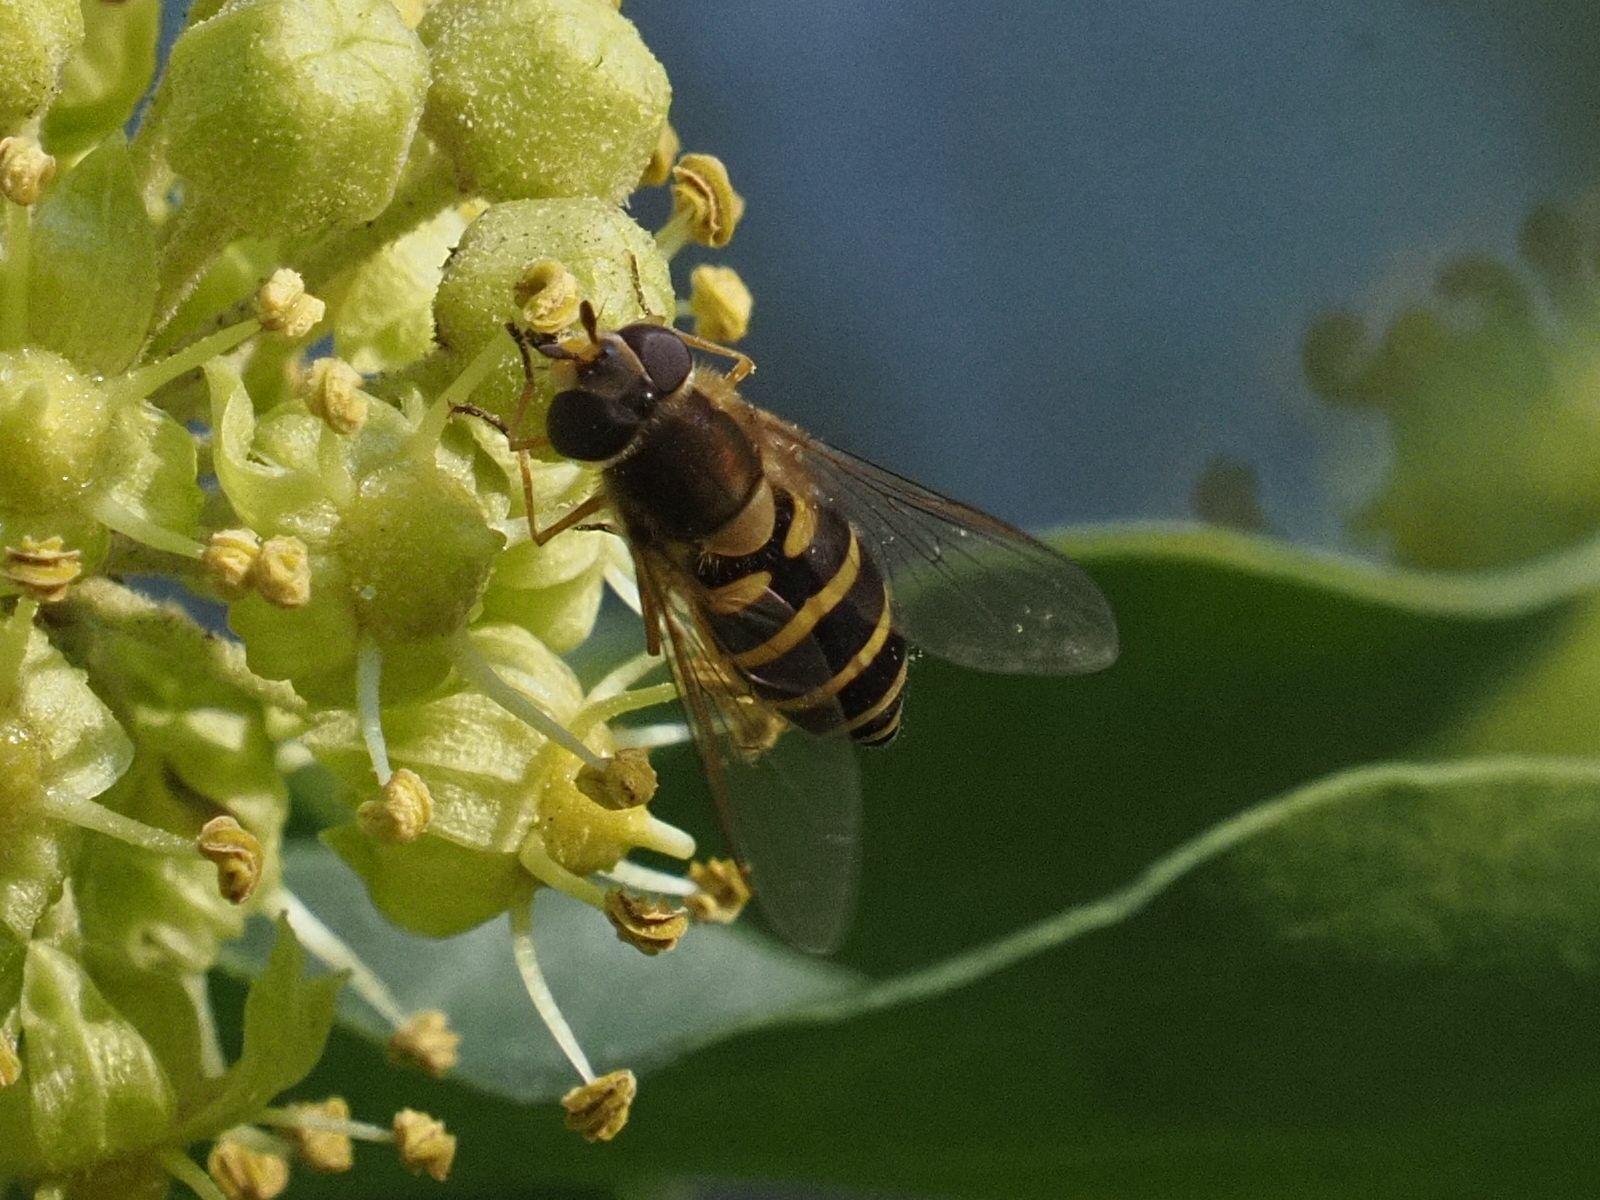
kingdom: Animalia
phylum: Arthropoda
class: Insecta
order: Diptera
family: Syrphidae
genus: Syrphus
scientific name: Syrphus
